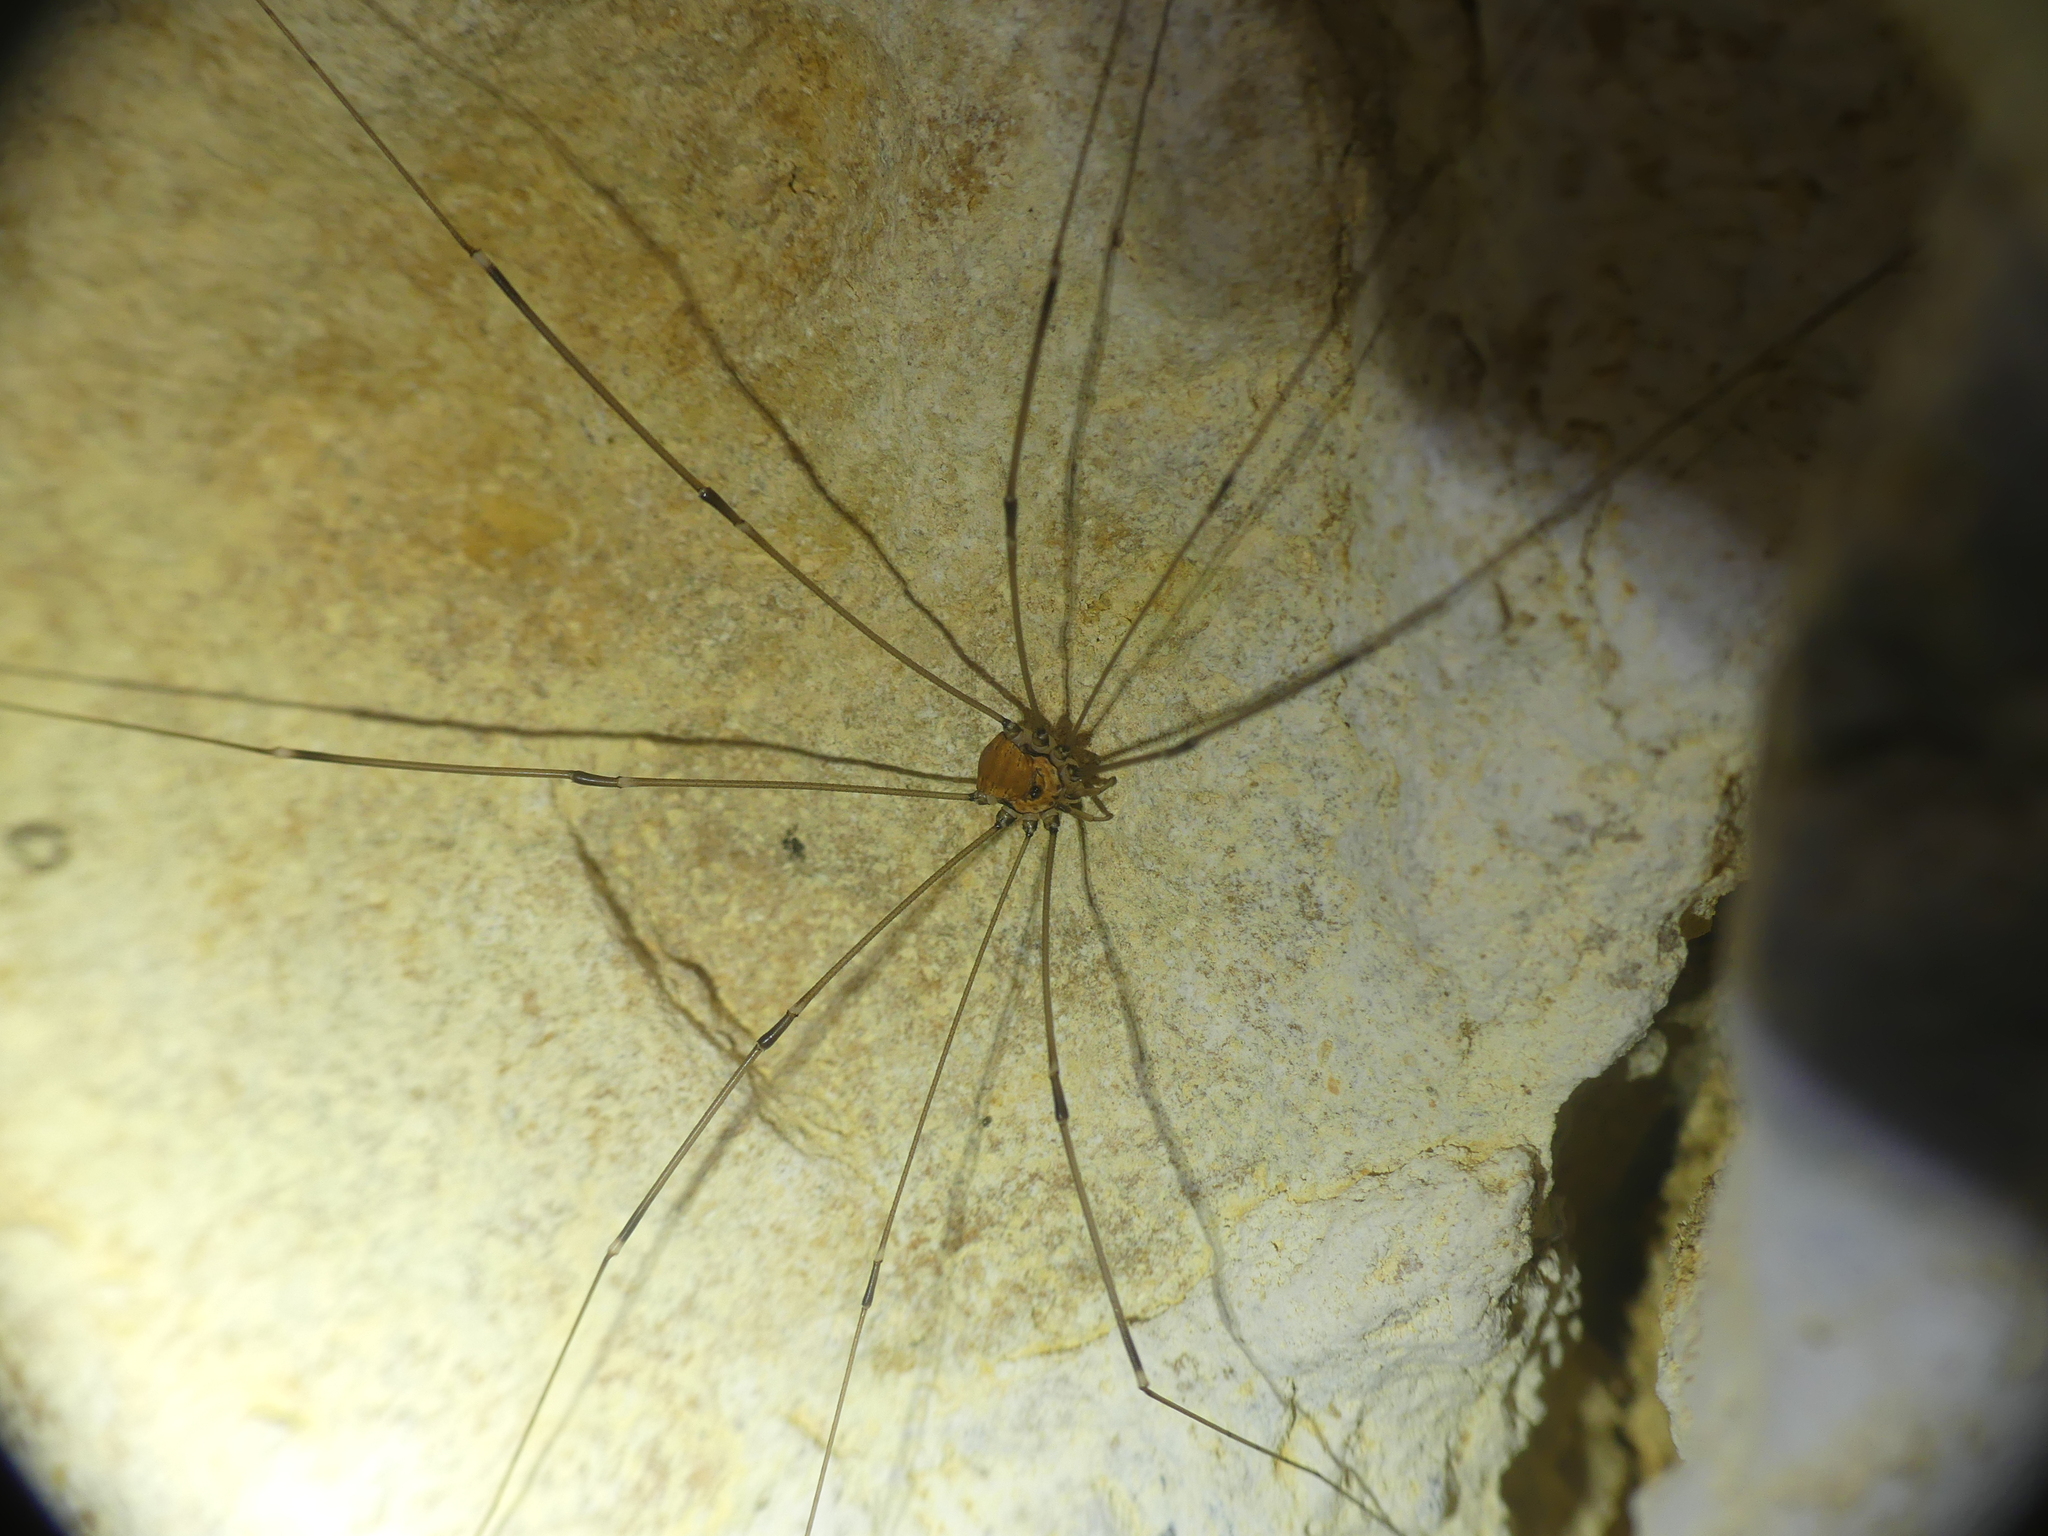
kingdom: Animalia
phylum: Arthropoda
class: Arachnida
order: Opiliones
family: Sclerosomatidae
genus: Leiobunum
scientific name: Leiobunum limbatum
